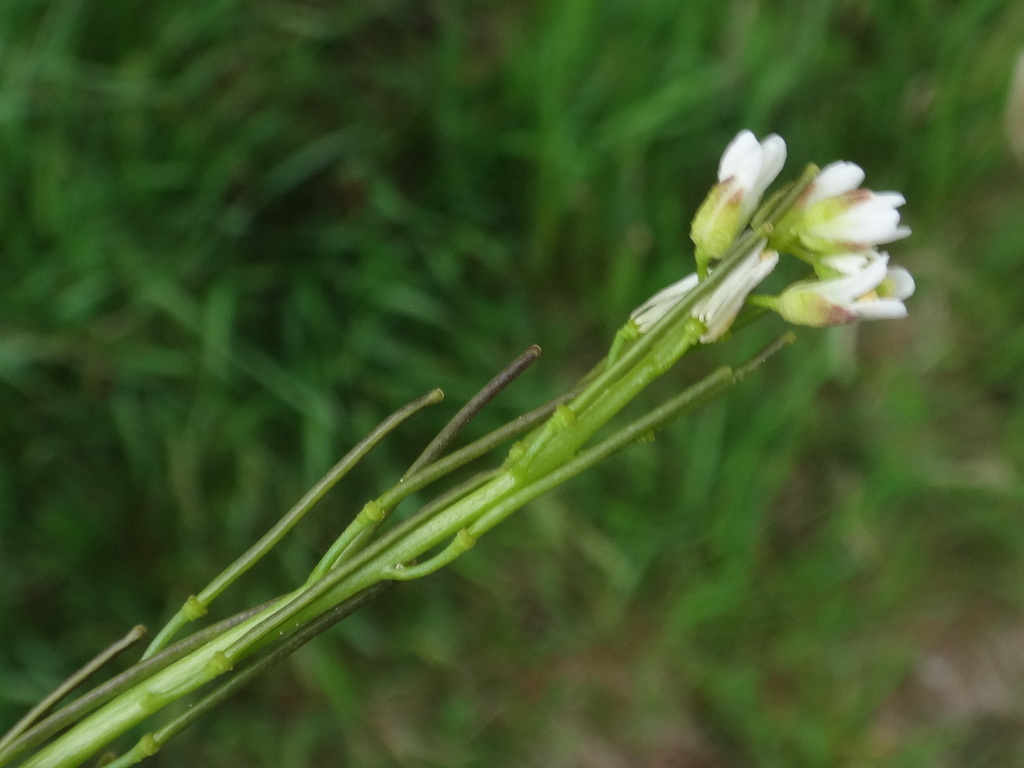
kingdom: Plantae
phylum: Tracheophyta
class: Magnoliopsida
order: Brassicales
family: Brassicaceae
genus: Arabis
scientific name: Arabis hirsuta
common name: Hairy rock-cress
